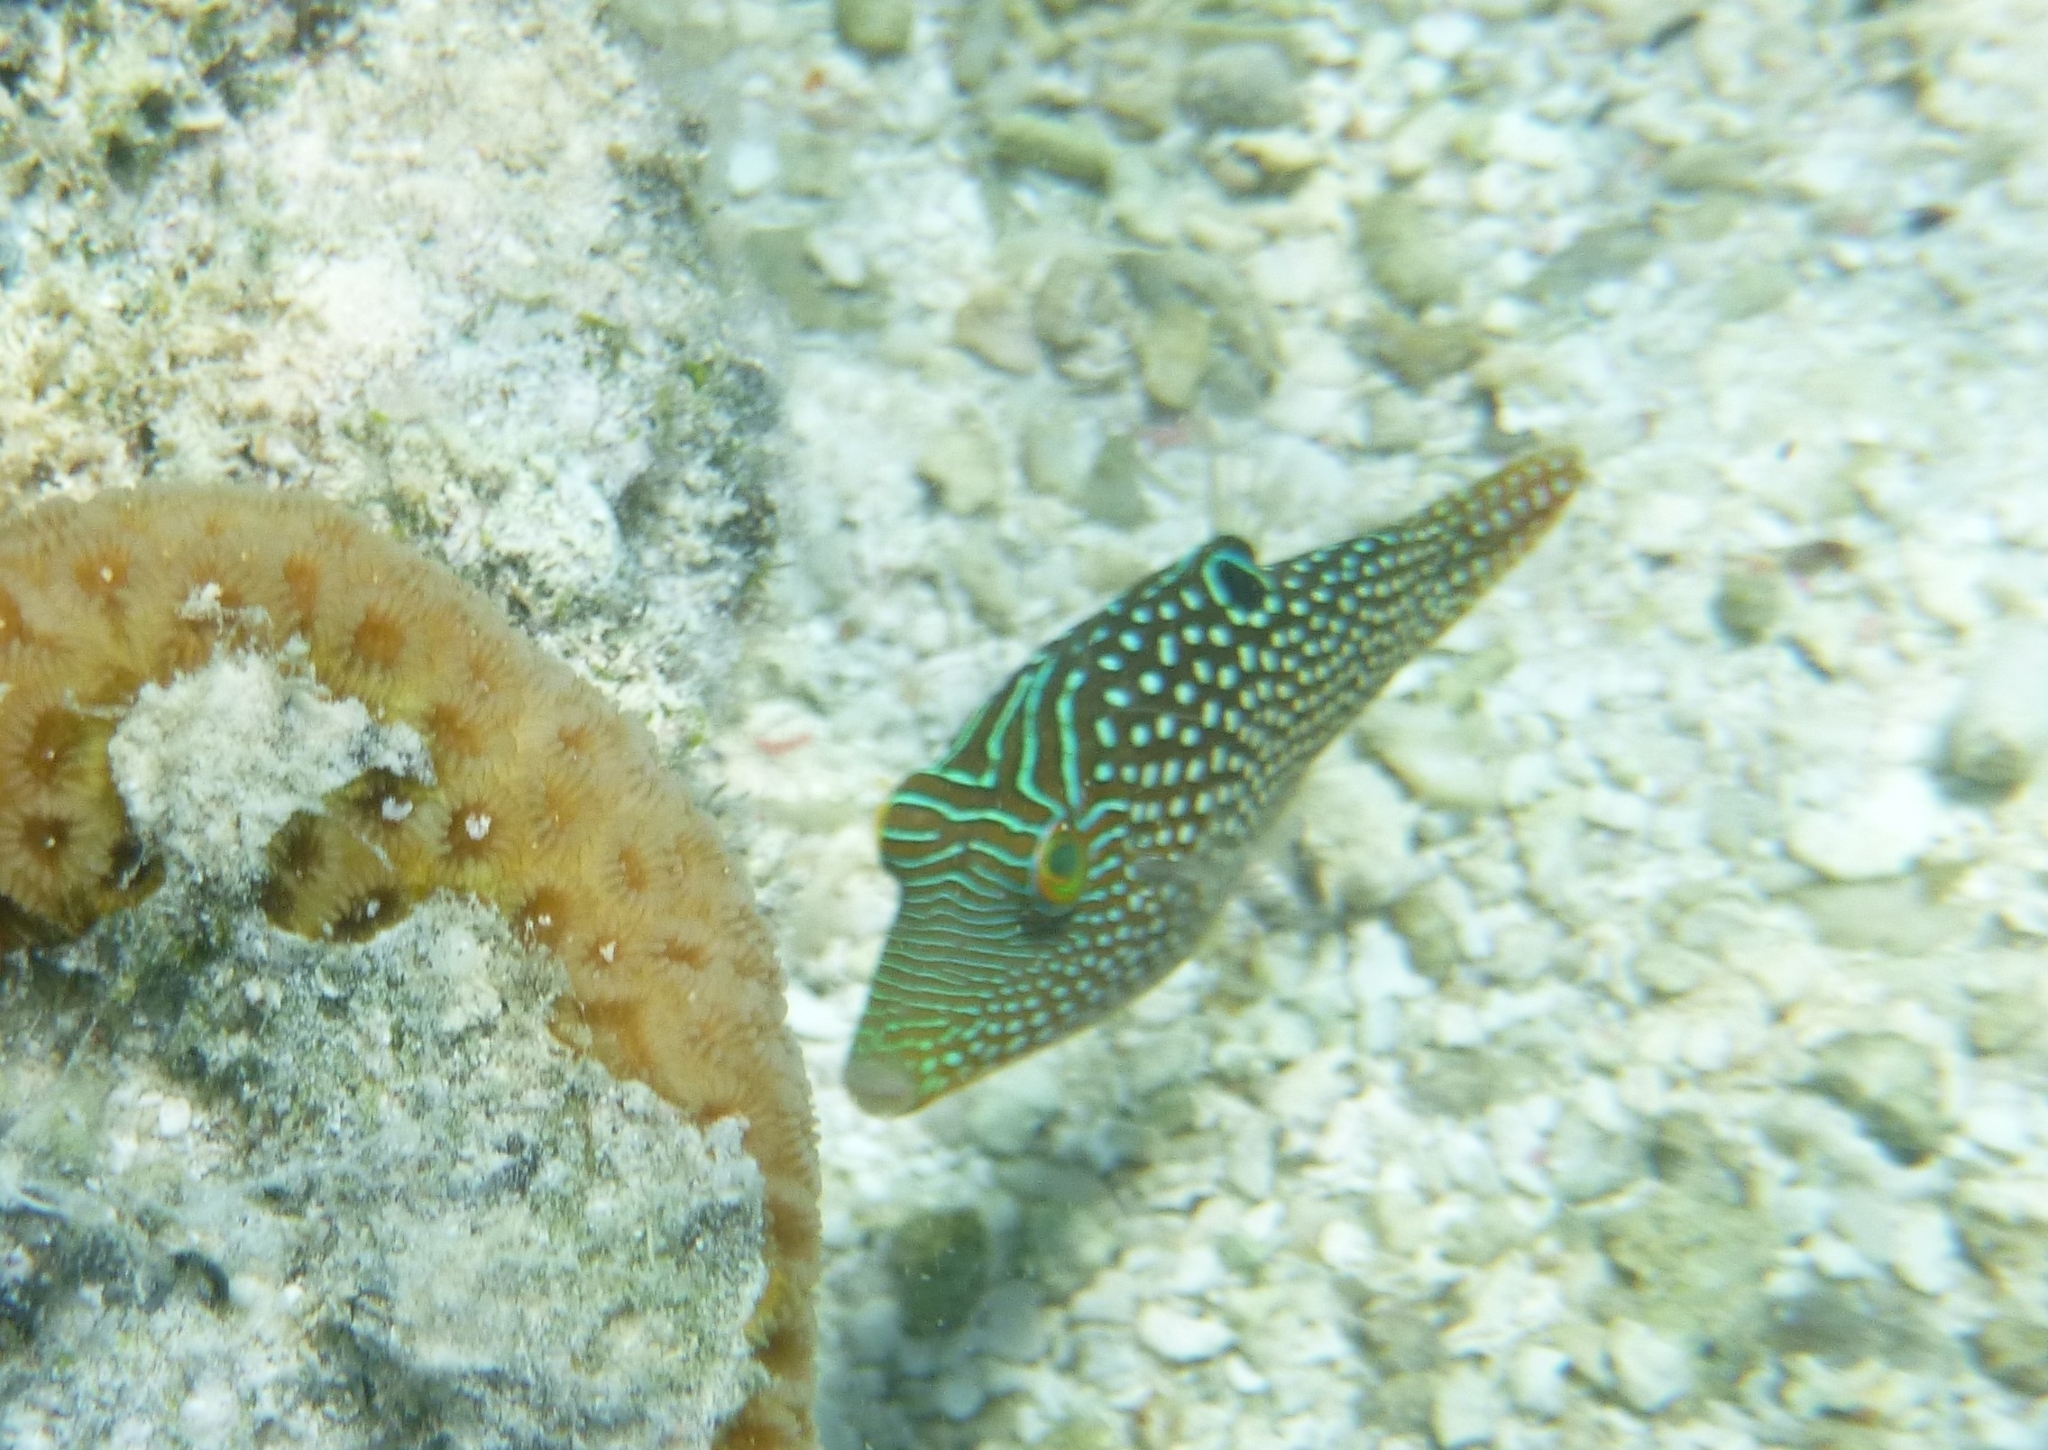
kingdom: Animalia
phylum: Chordata
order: Tetraodontiformes
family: Tetraodontidae
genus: Canthigaster
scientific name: Canthigaster solandri
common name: False-eye toby
